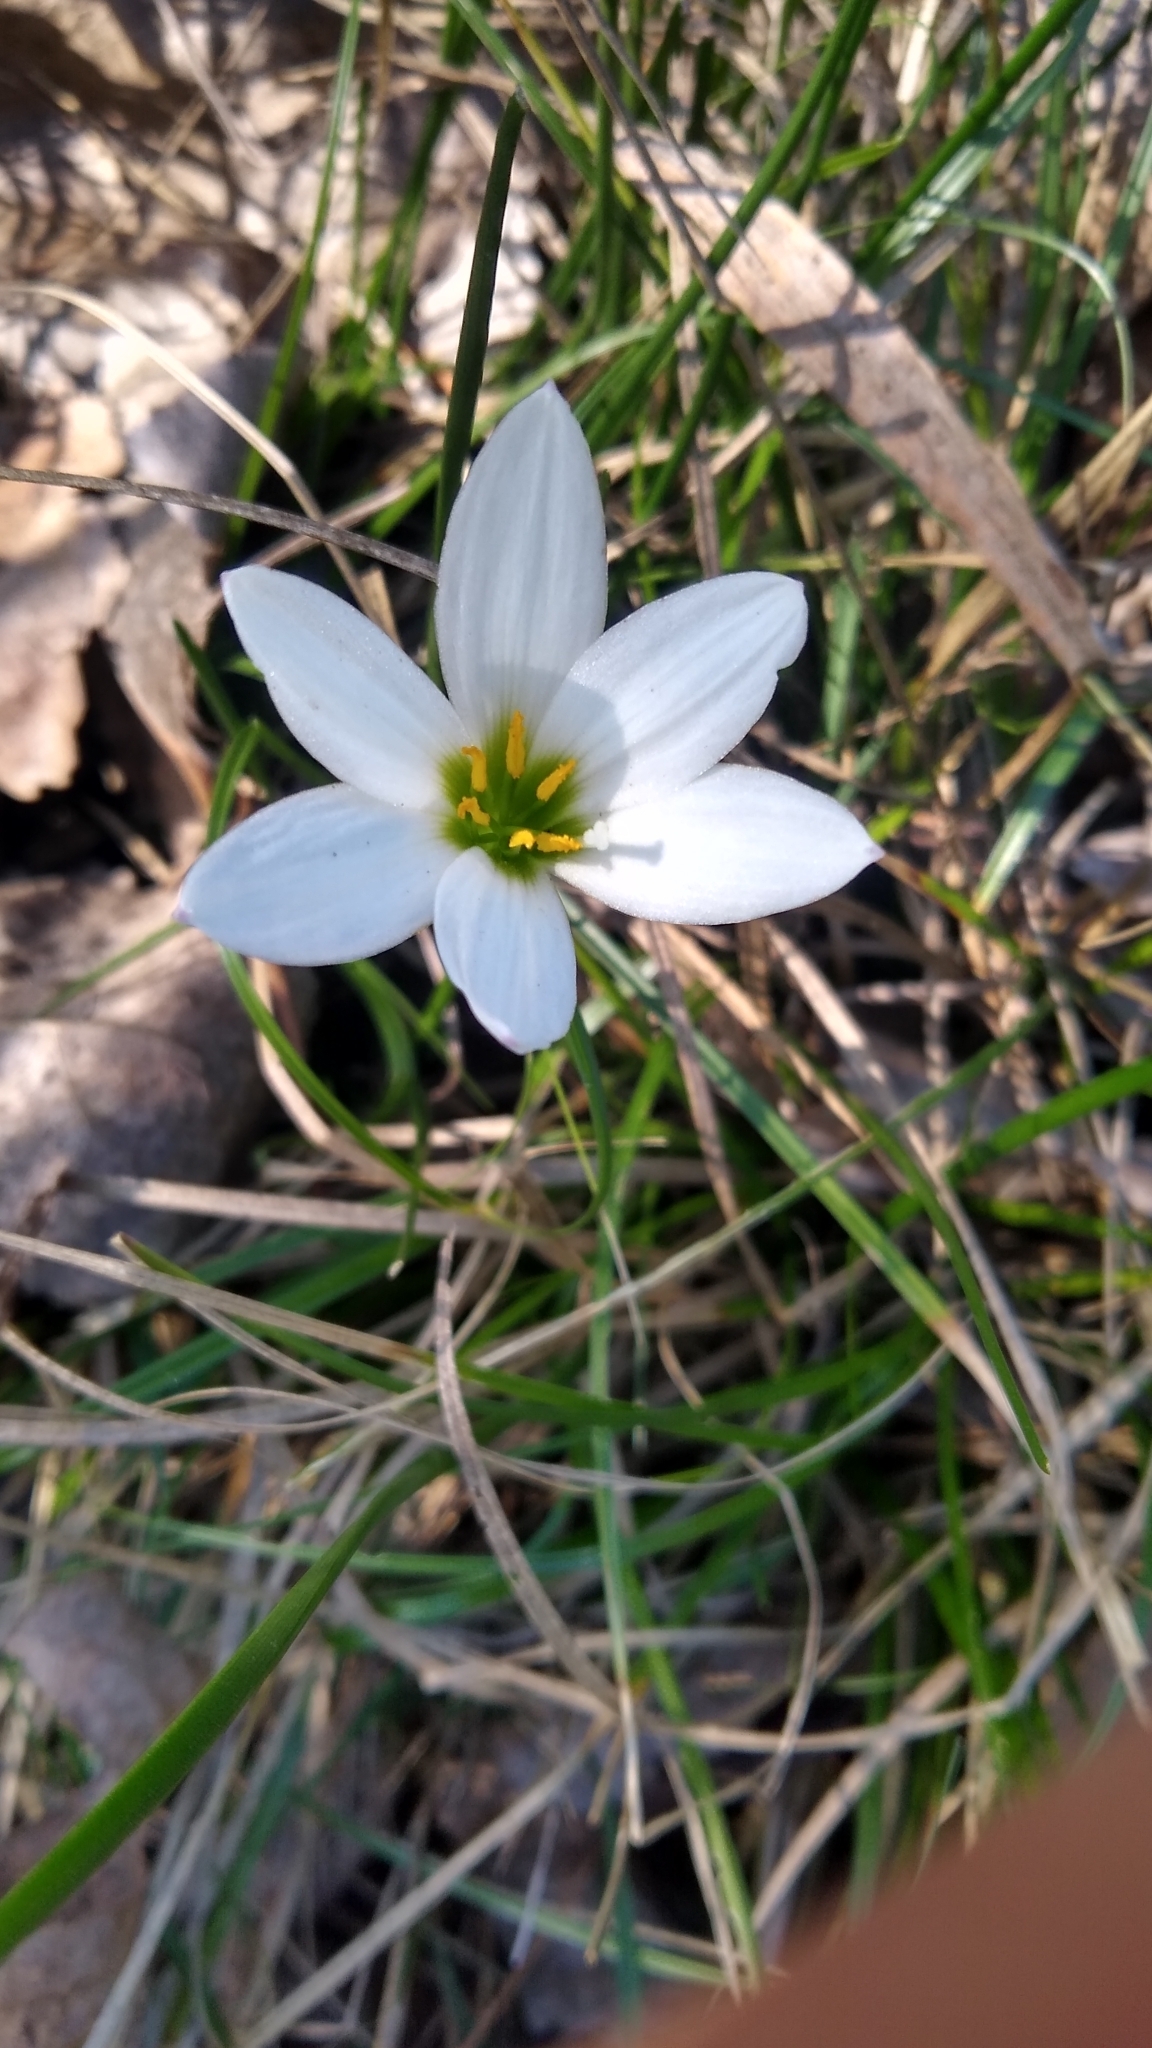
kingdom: Plantae
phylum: Tracheophyta
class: Liliopsida
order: Asparagales
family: Amaryllidaceae
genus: Zephyranthes
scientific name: Zephyranthes candida
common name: Autumn zephyrlily
